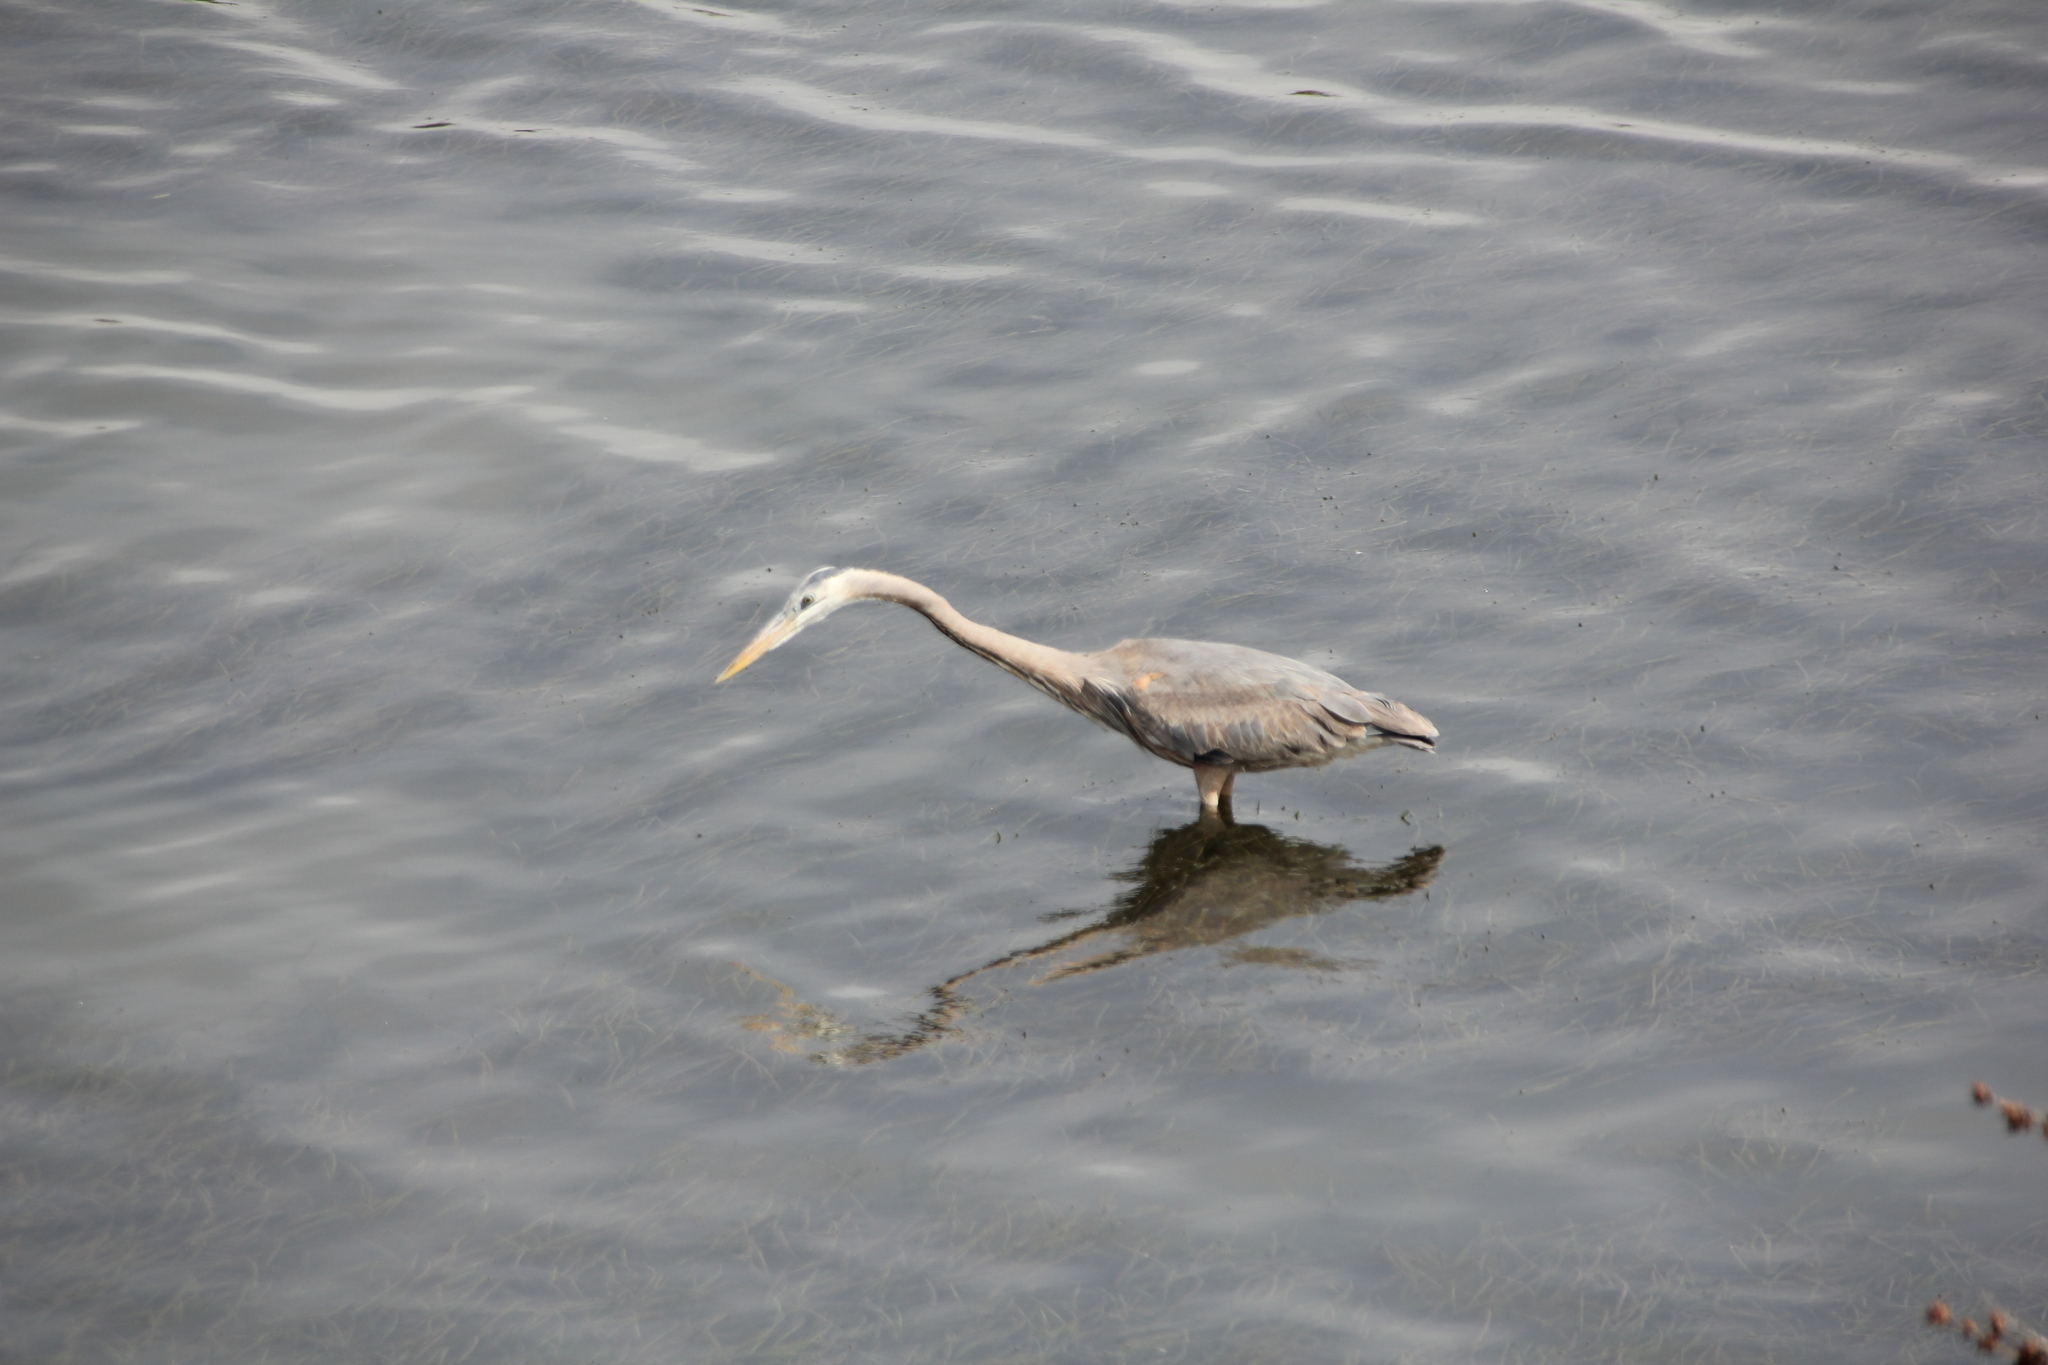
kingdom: Animalia
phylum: Chordata
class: Aves
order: Pelecaniformes
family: Ardeidae
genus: Ardea
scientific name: Ardea herodias
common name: Great blue heron
